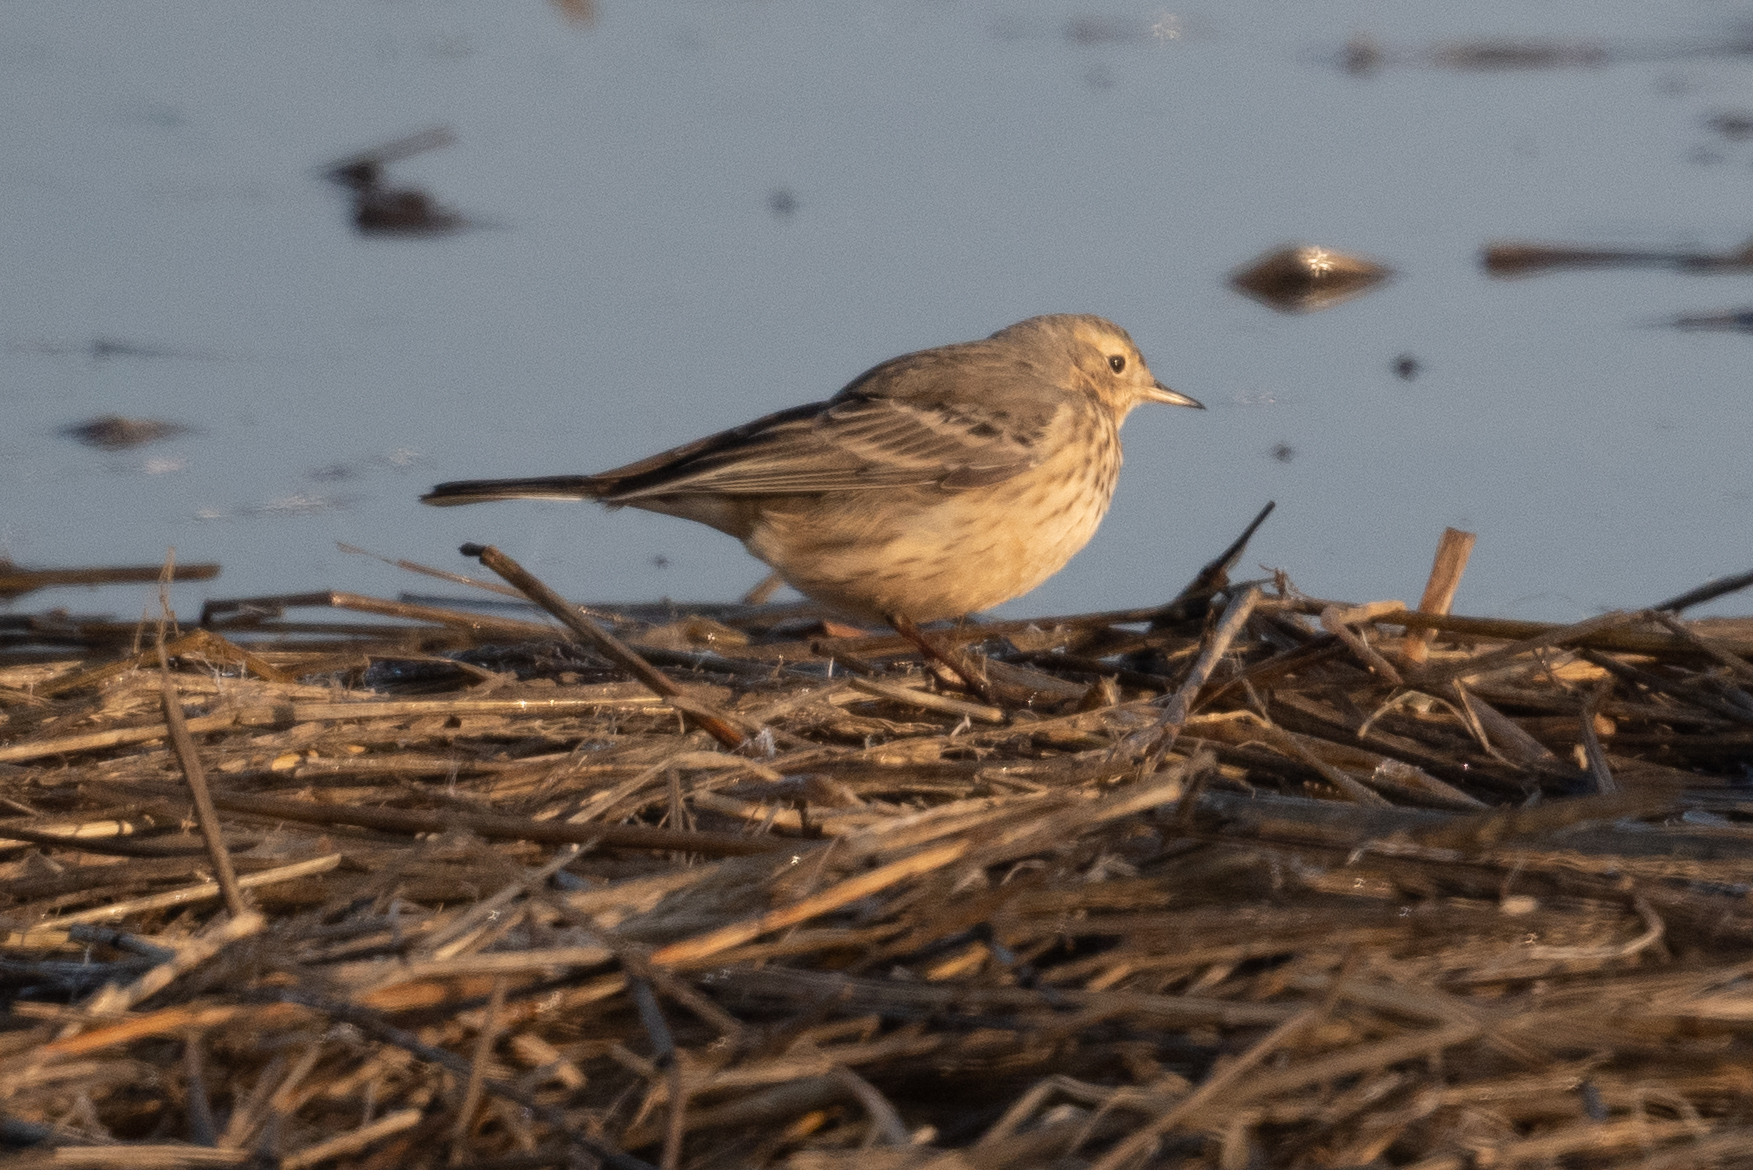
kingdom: Animalia
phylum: Chordata
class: Aves
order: Passeriformes
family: Motacillidae
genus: Anthus
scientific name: Anthus rubescens
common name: Buff-bellied pipit
